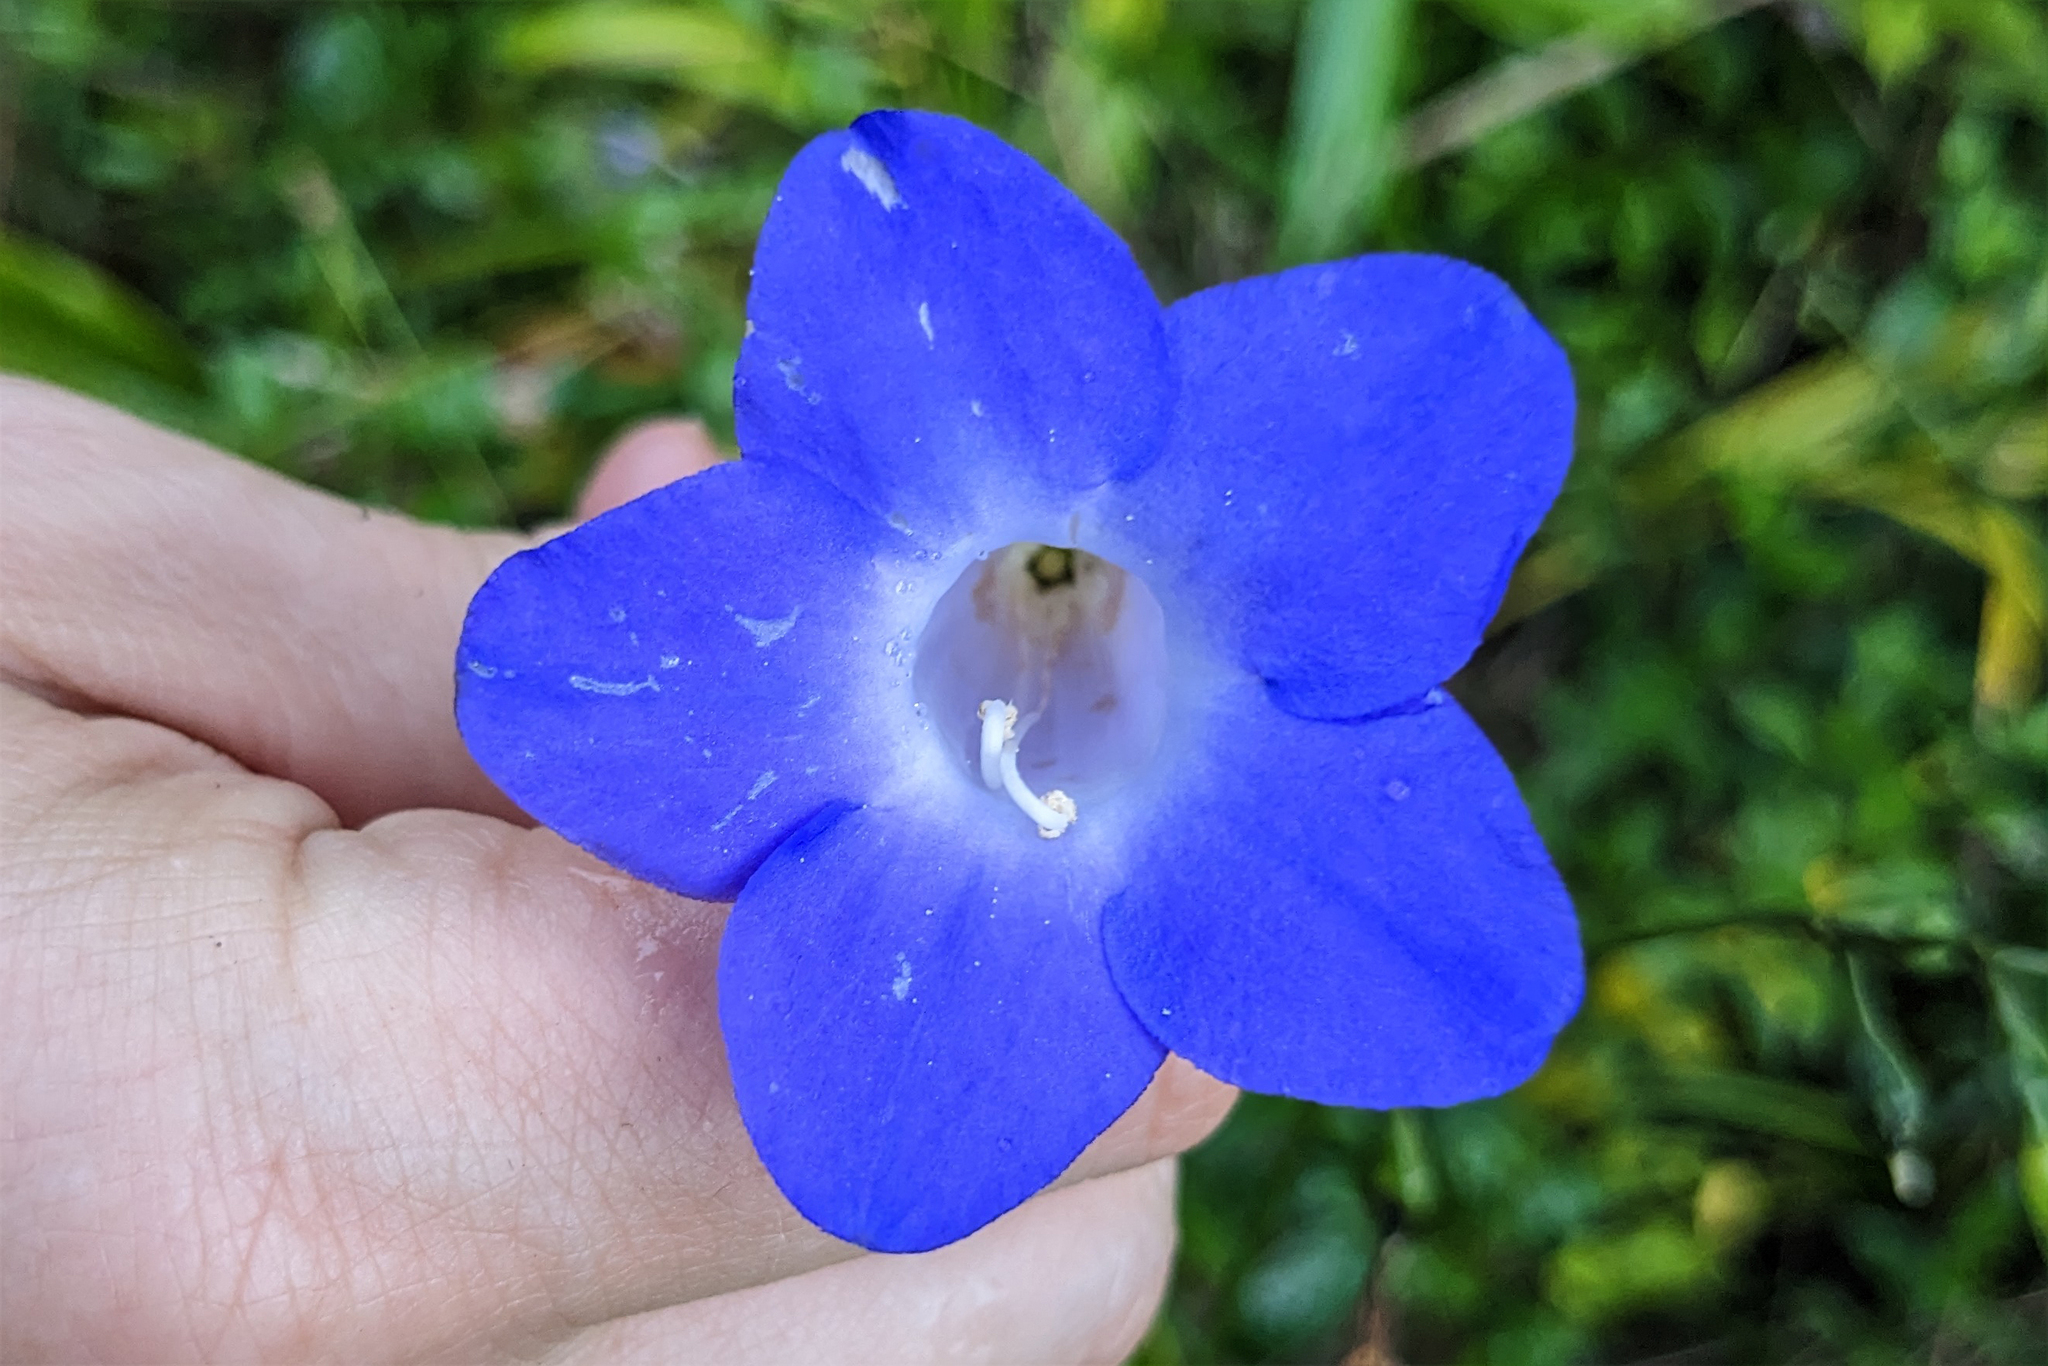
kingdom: Plantae
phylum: Tracheophyta
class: Magnoliopsida
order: Gentianales
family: Gentianaceae
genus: Chelonanthus
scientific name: Chelonanthus purpurascens
